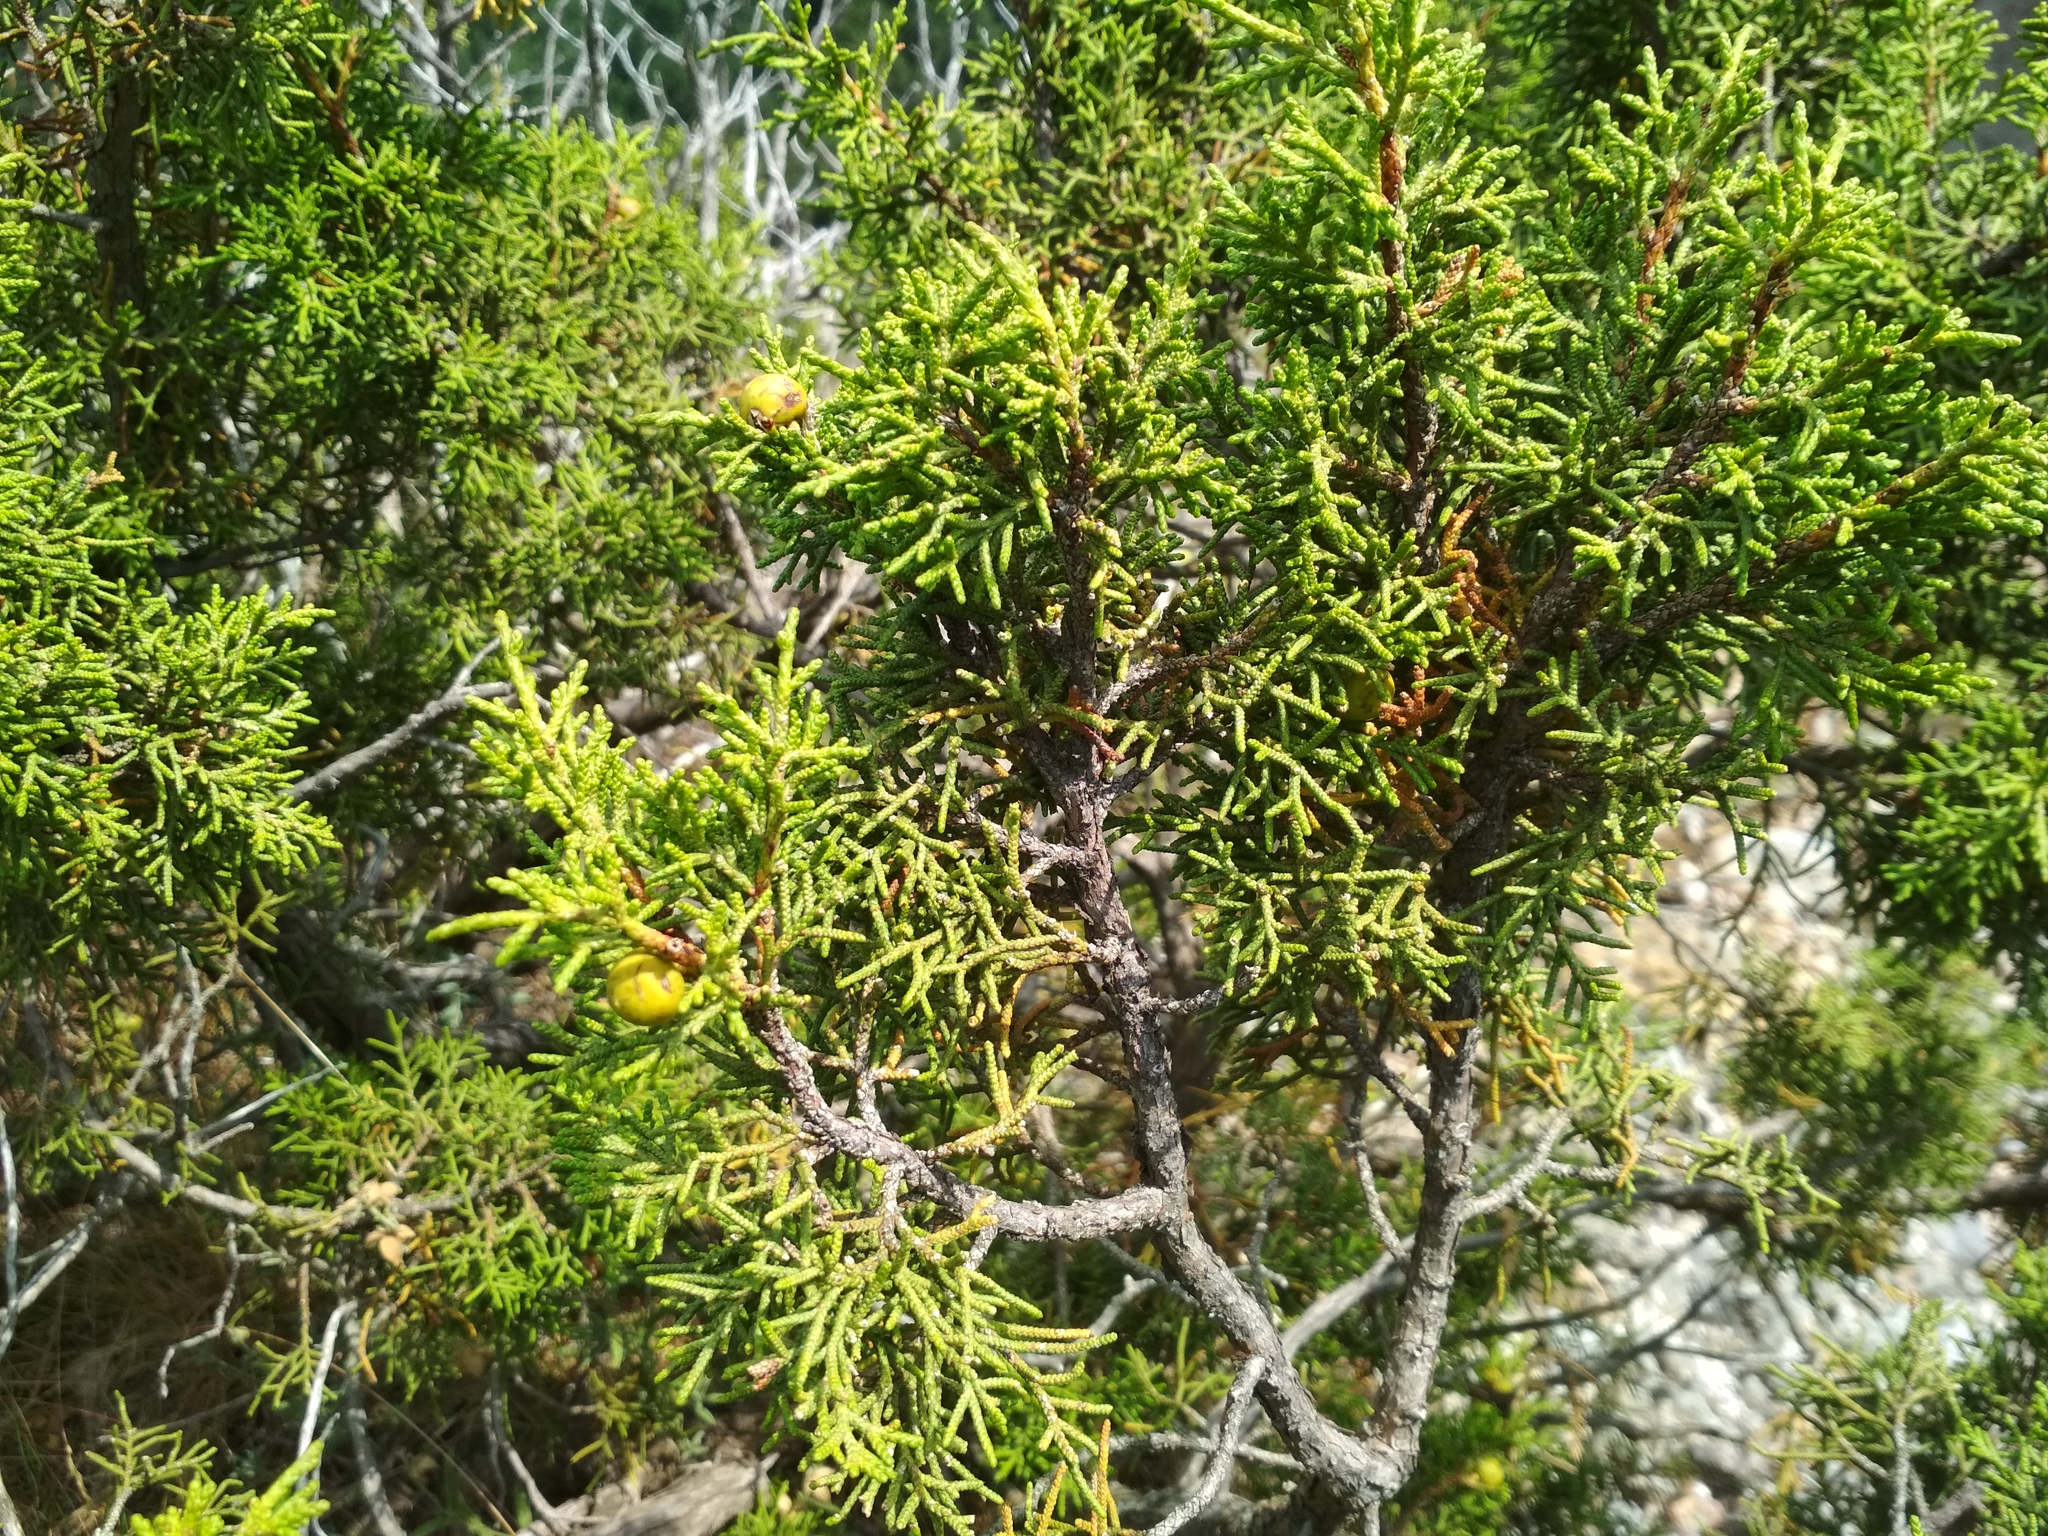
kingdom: Plantae
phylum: Tracheophyta
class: Pinopsida
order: Pinales
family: Cupressaceae
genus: Juniperus
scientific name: Juniperus phoenicea
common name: Phoenician juniper
